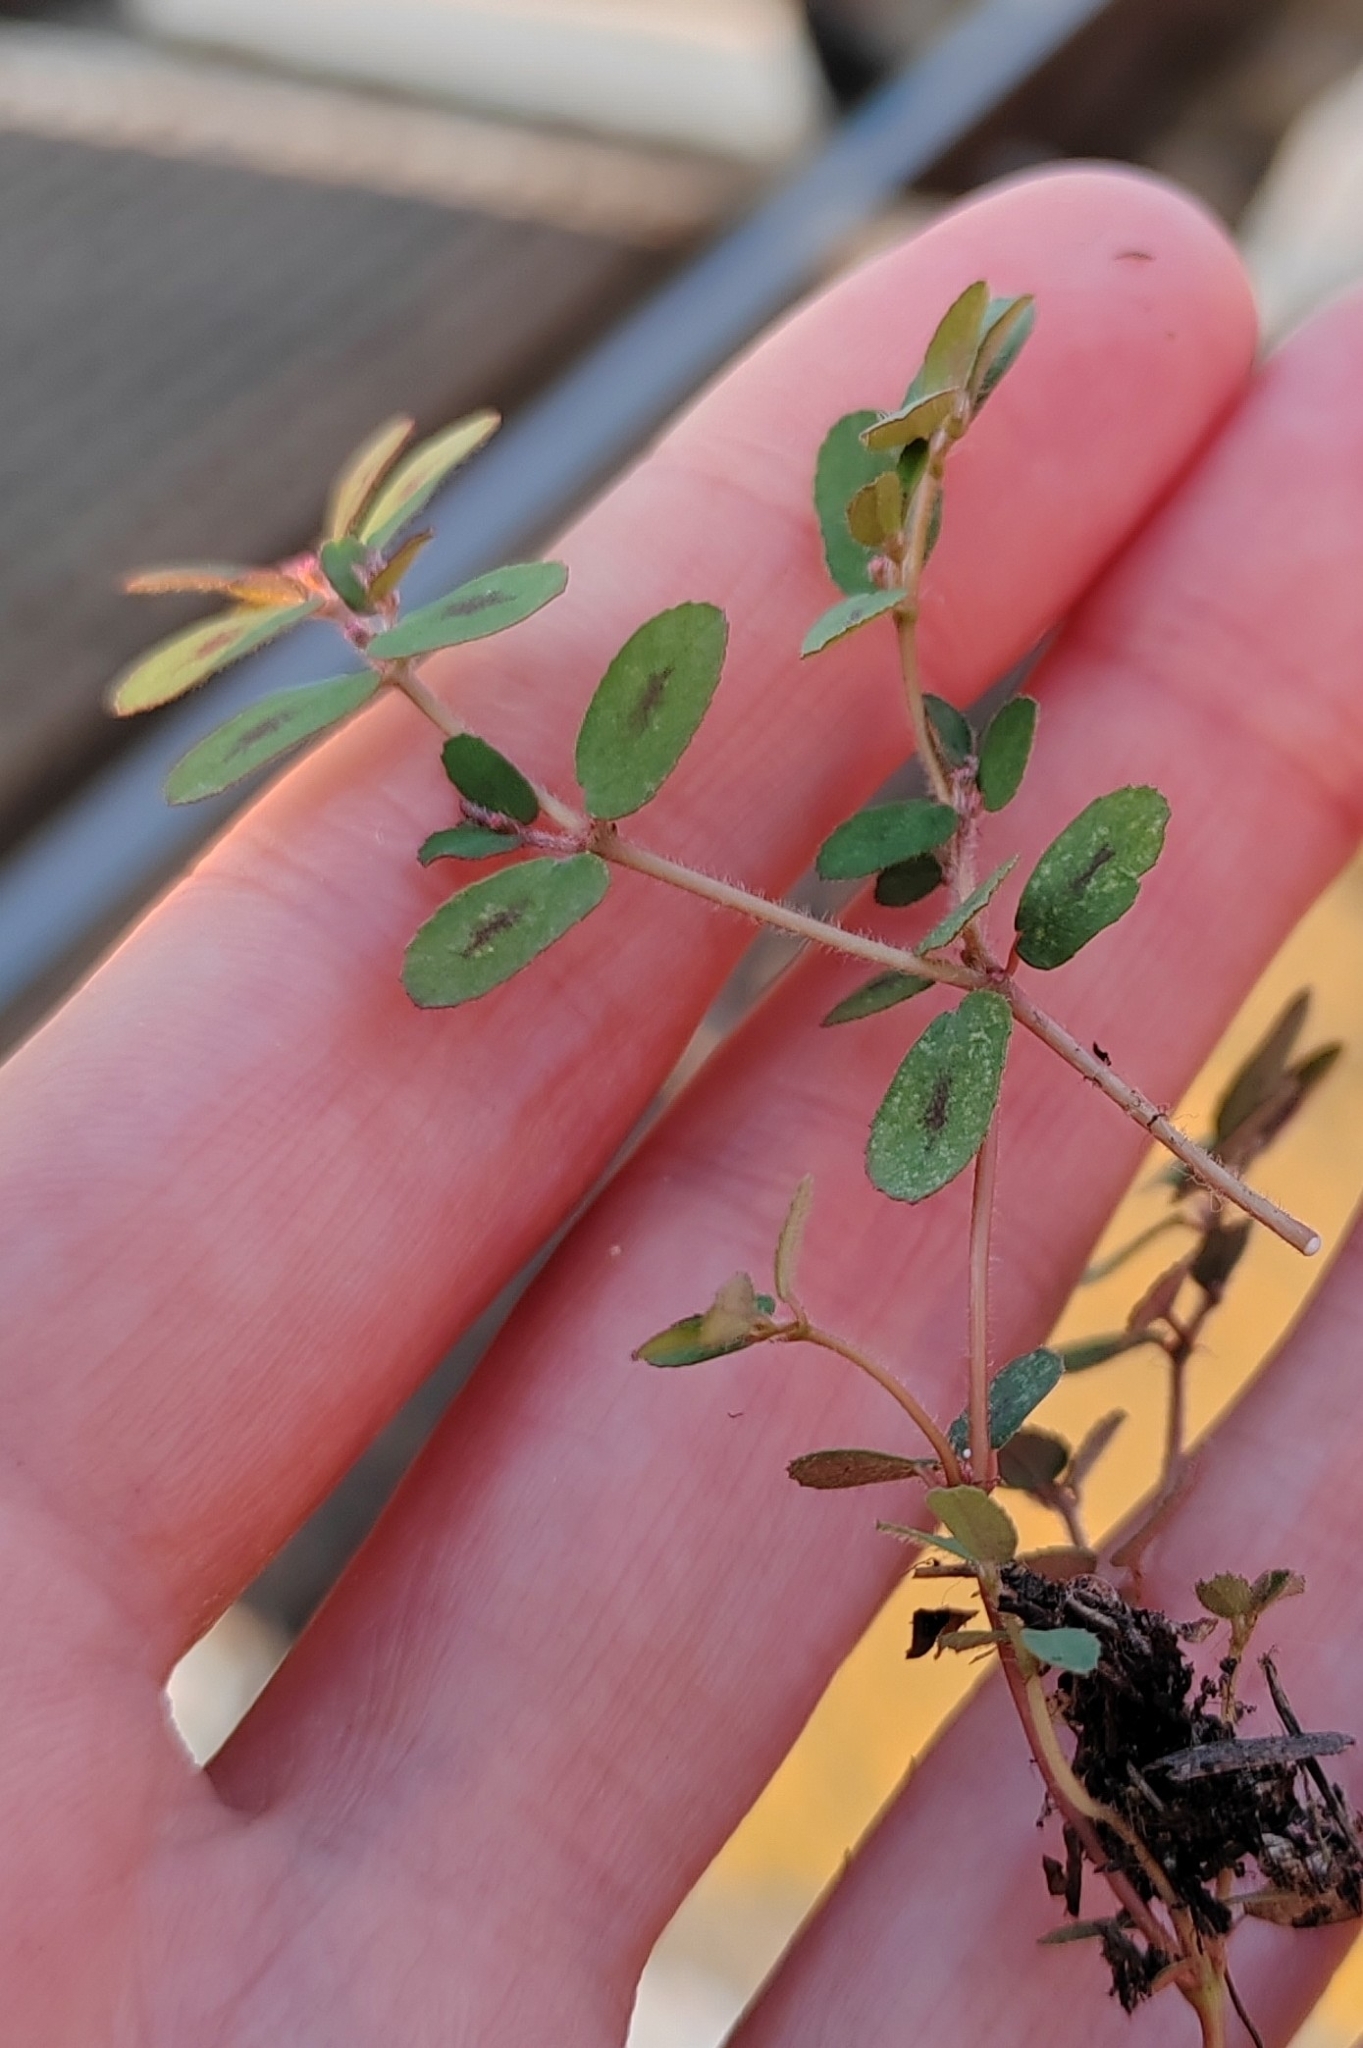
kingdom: Plantae
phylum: Tracheophyta
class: Magnoliopsida
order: Malpighiales
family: Euphorbiaceae
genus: Euphorbia
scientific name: Euphorbia maculata
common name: Spotted spurge
